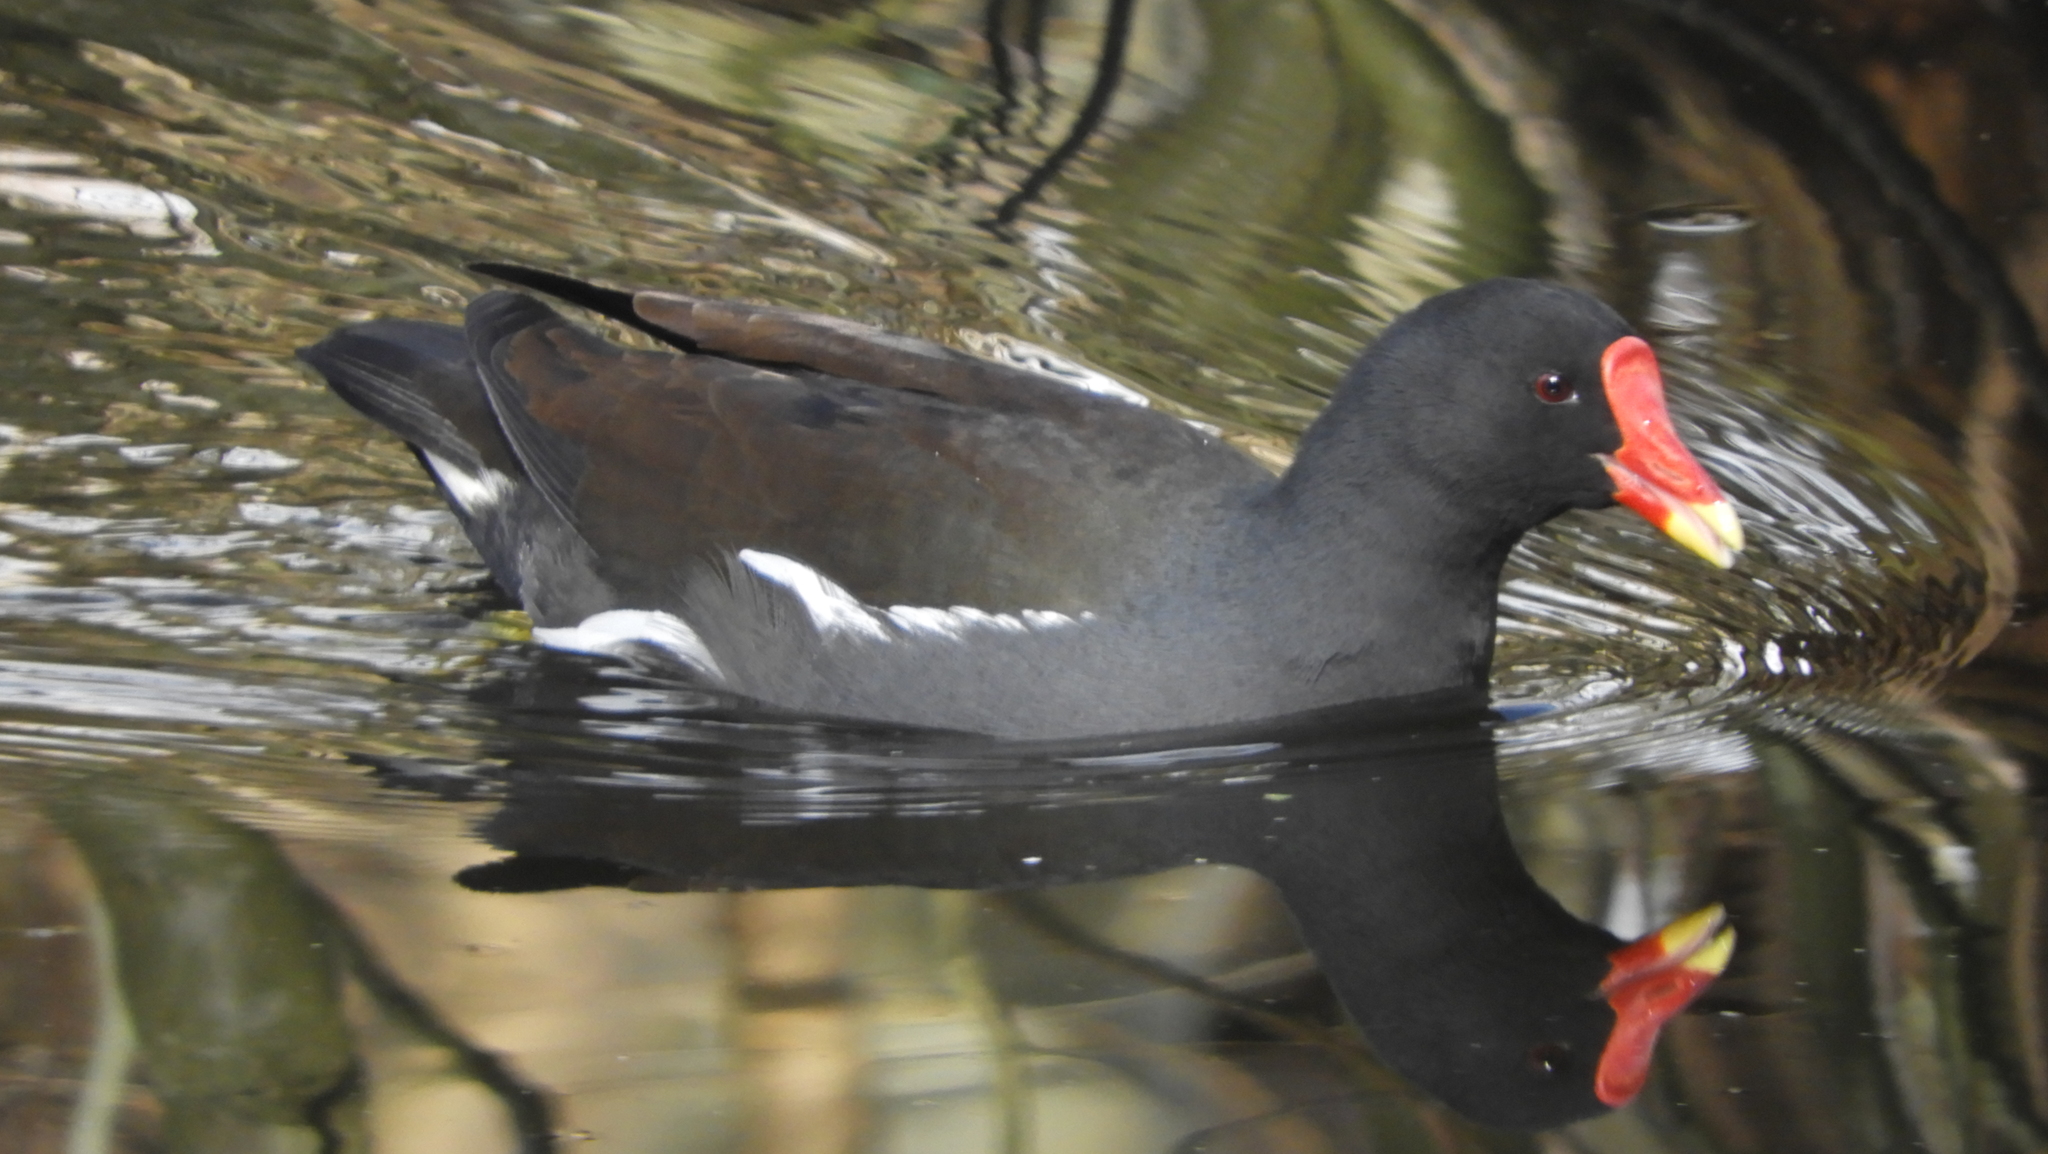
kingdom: Animalia
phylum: Chordata
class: Aves
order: Gruiformes
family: Rallidae
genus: Gallinula
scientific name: Gallinula chloropus
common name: Common moorhen
